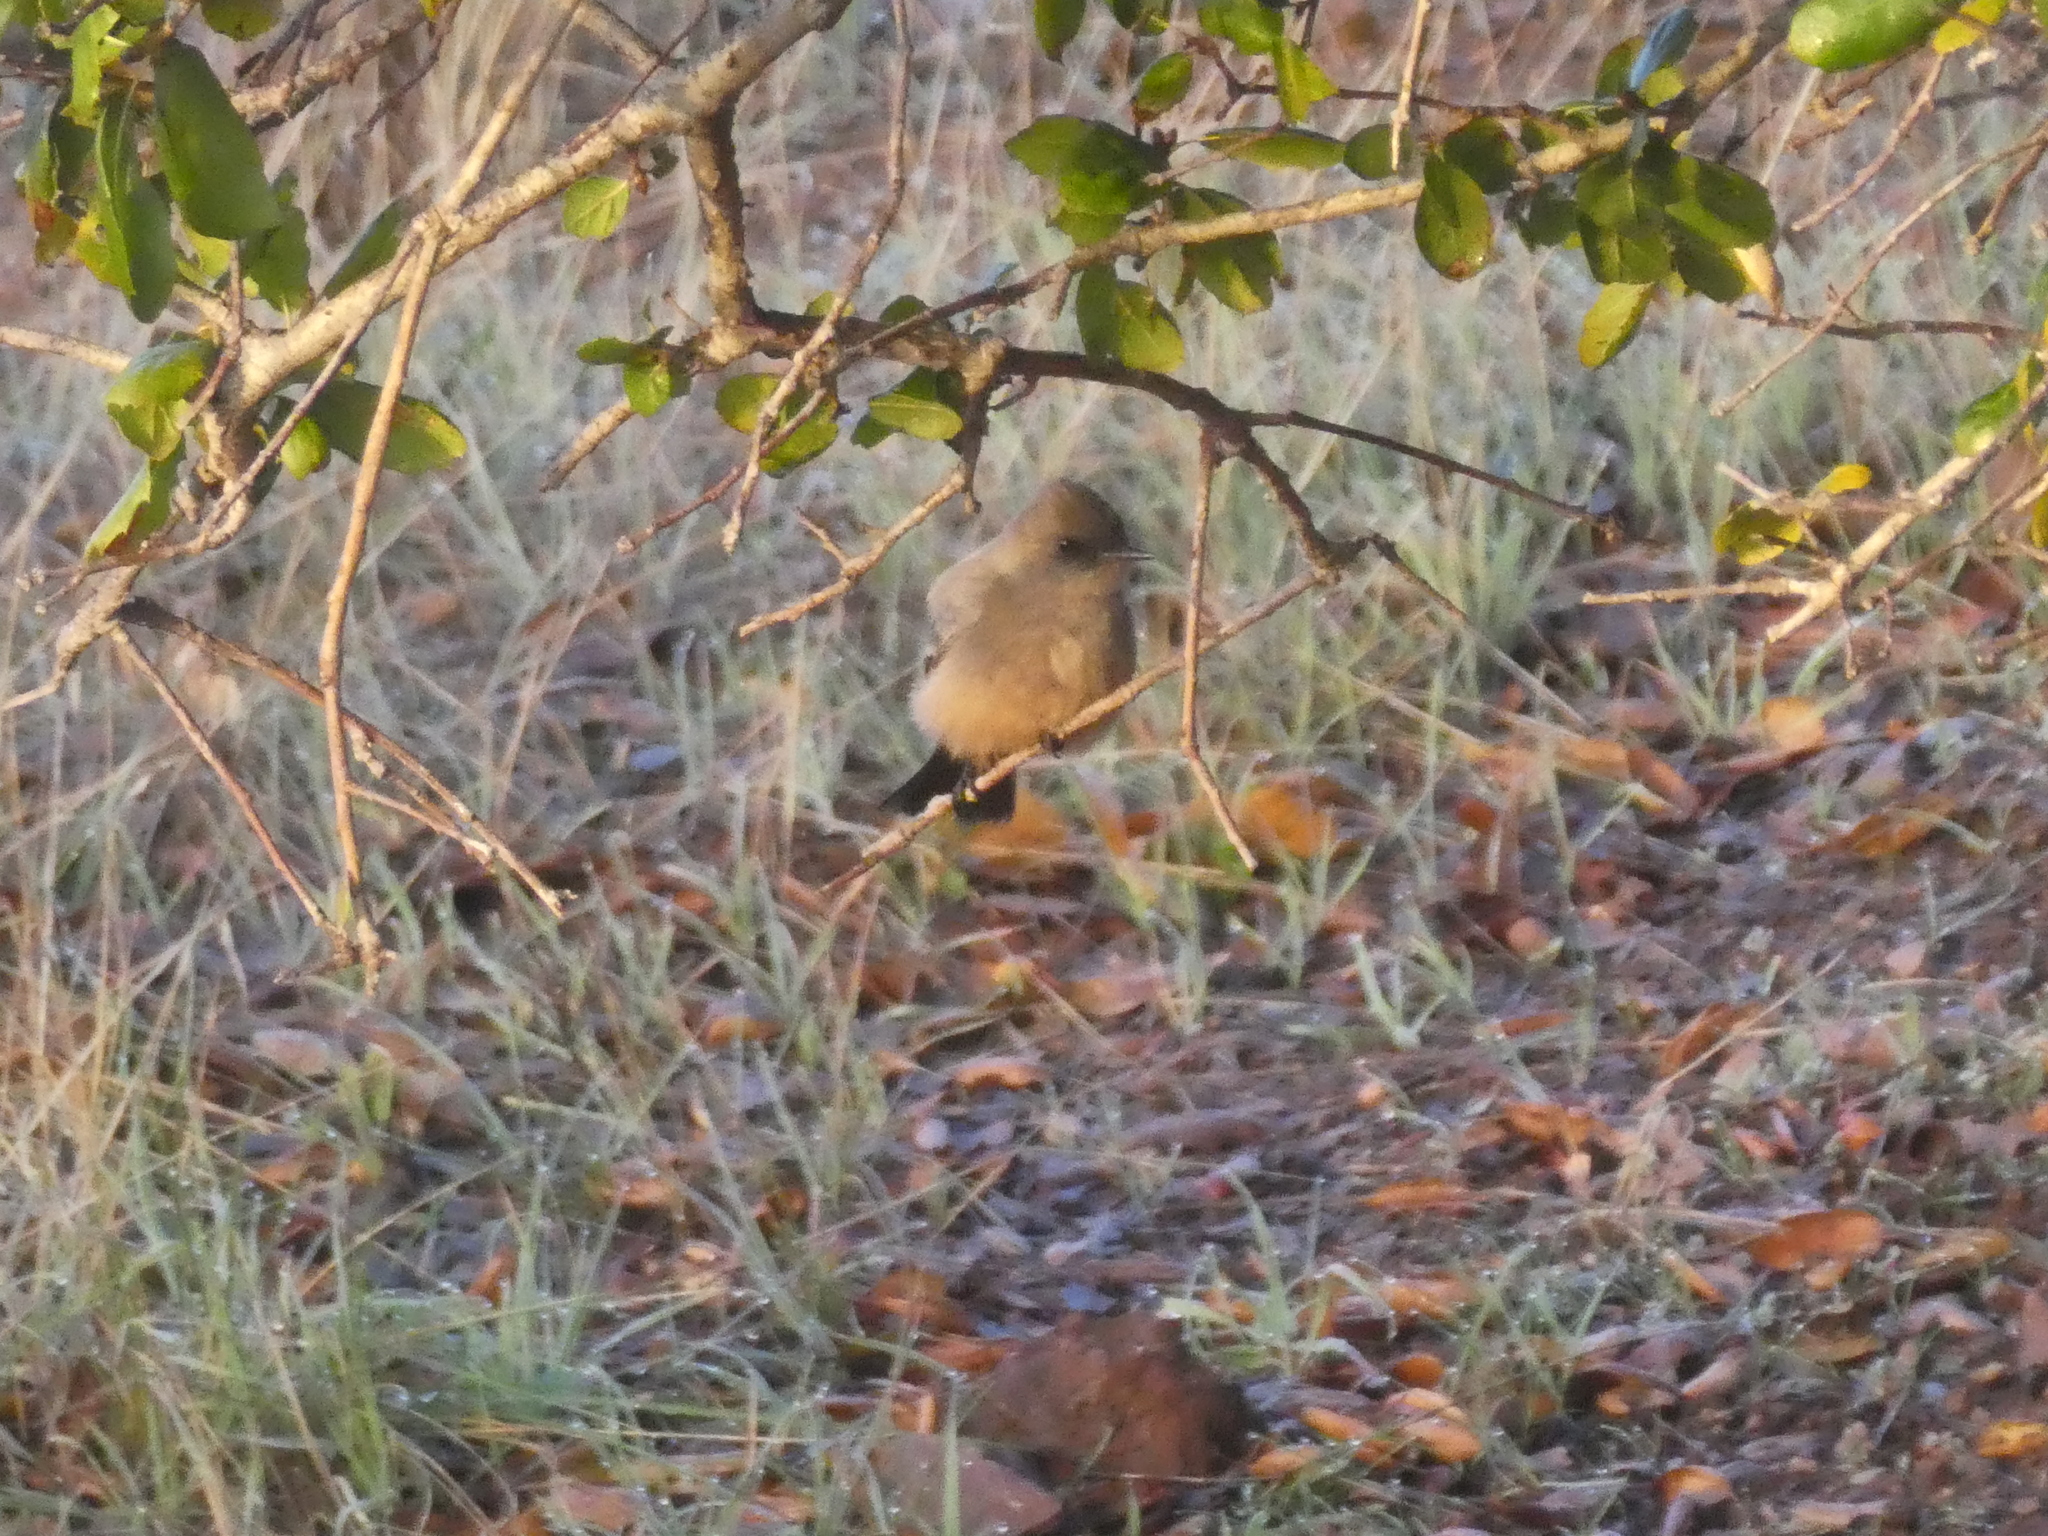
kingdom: Animalia
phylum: Chordata
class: Aves
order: Passeriformes
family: Tyrannidae
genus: Sayornis
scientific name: Sayornis saya
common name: Say's phoebe
